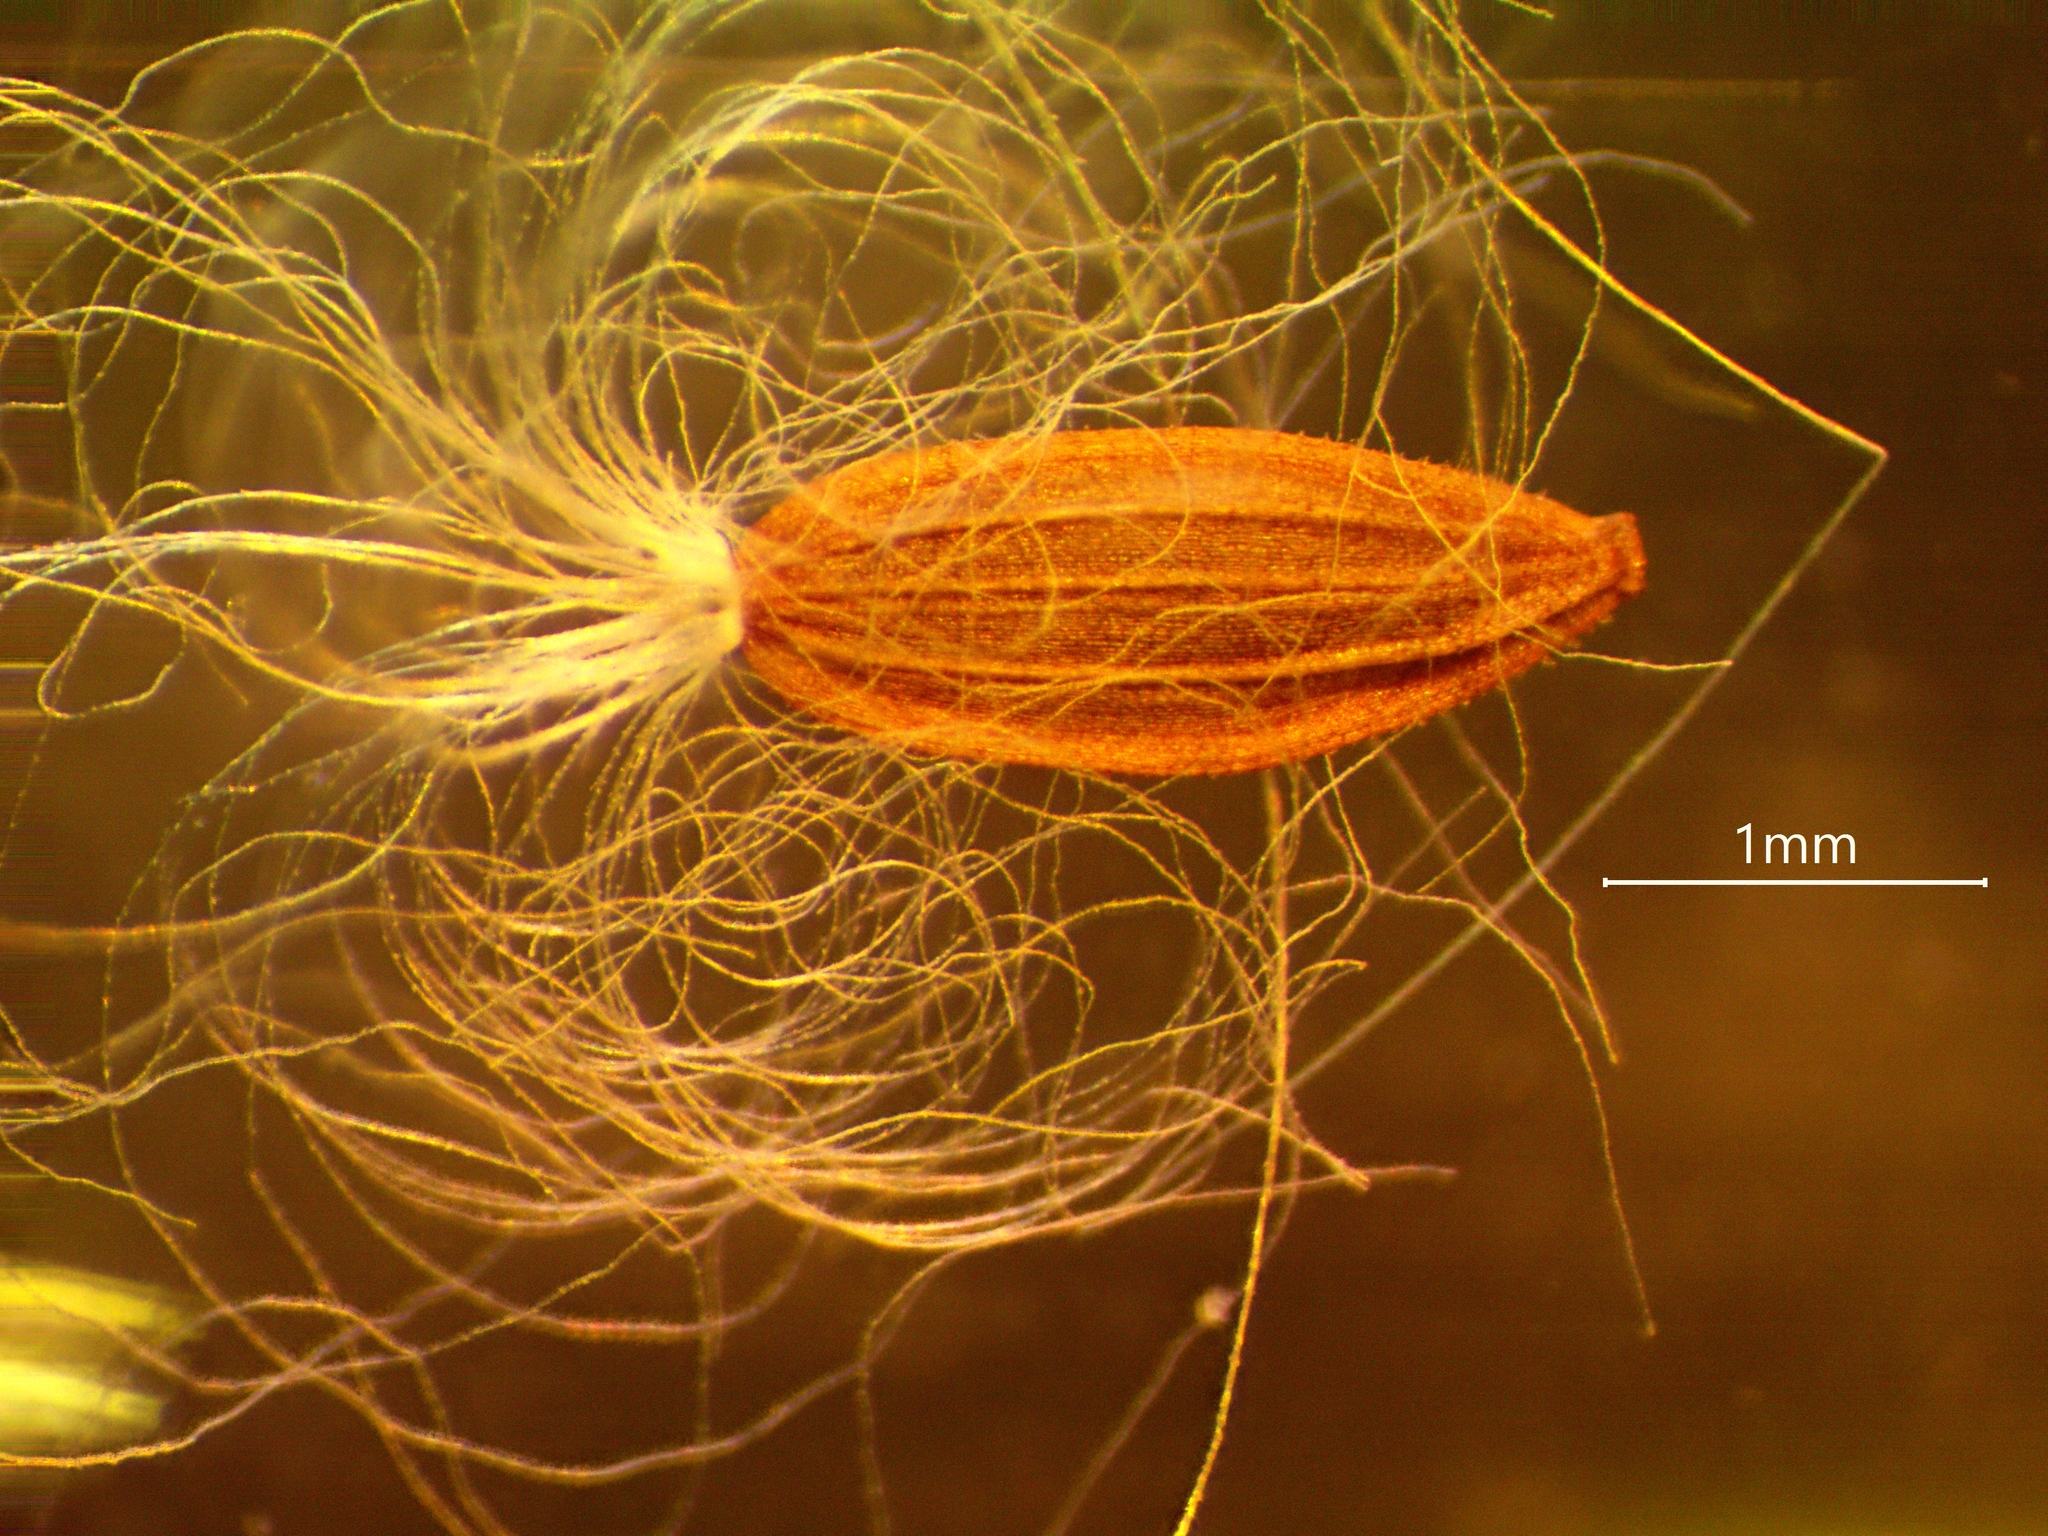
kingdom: Plantae
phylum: Tracheophyta
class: Magnoliopsida
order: Asterales
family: Asteraceae
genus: Sonchus
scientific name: Sonchus arvensis
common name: Perennial sow-thistle
